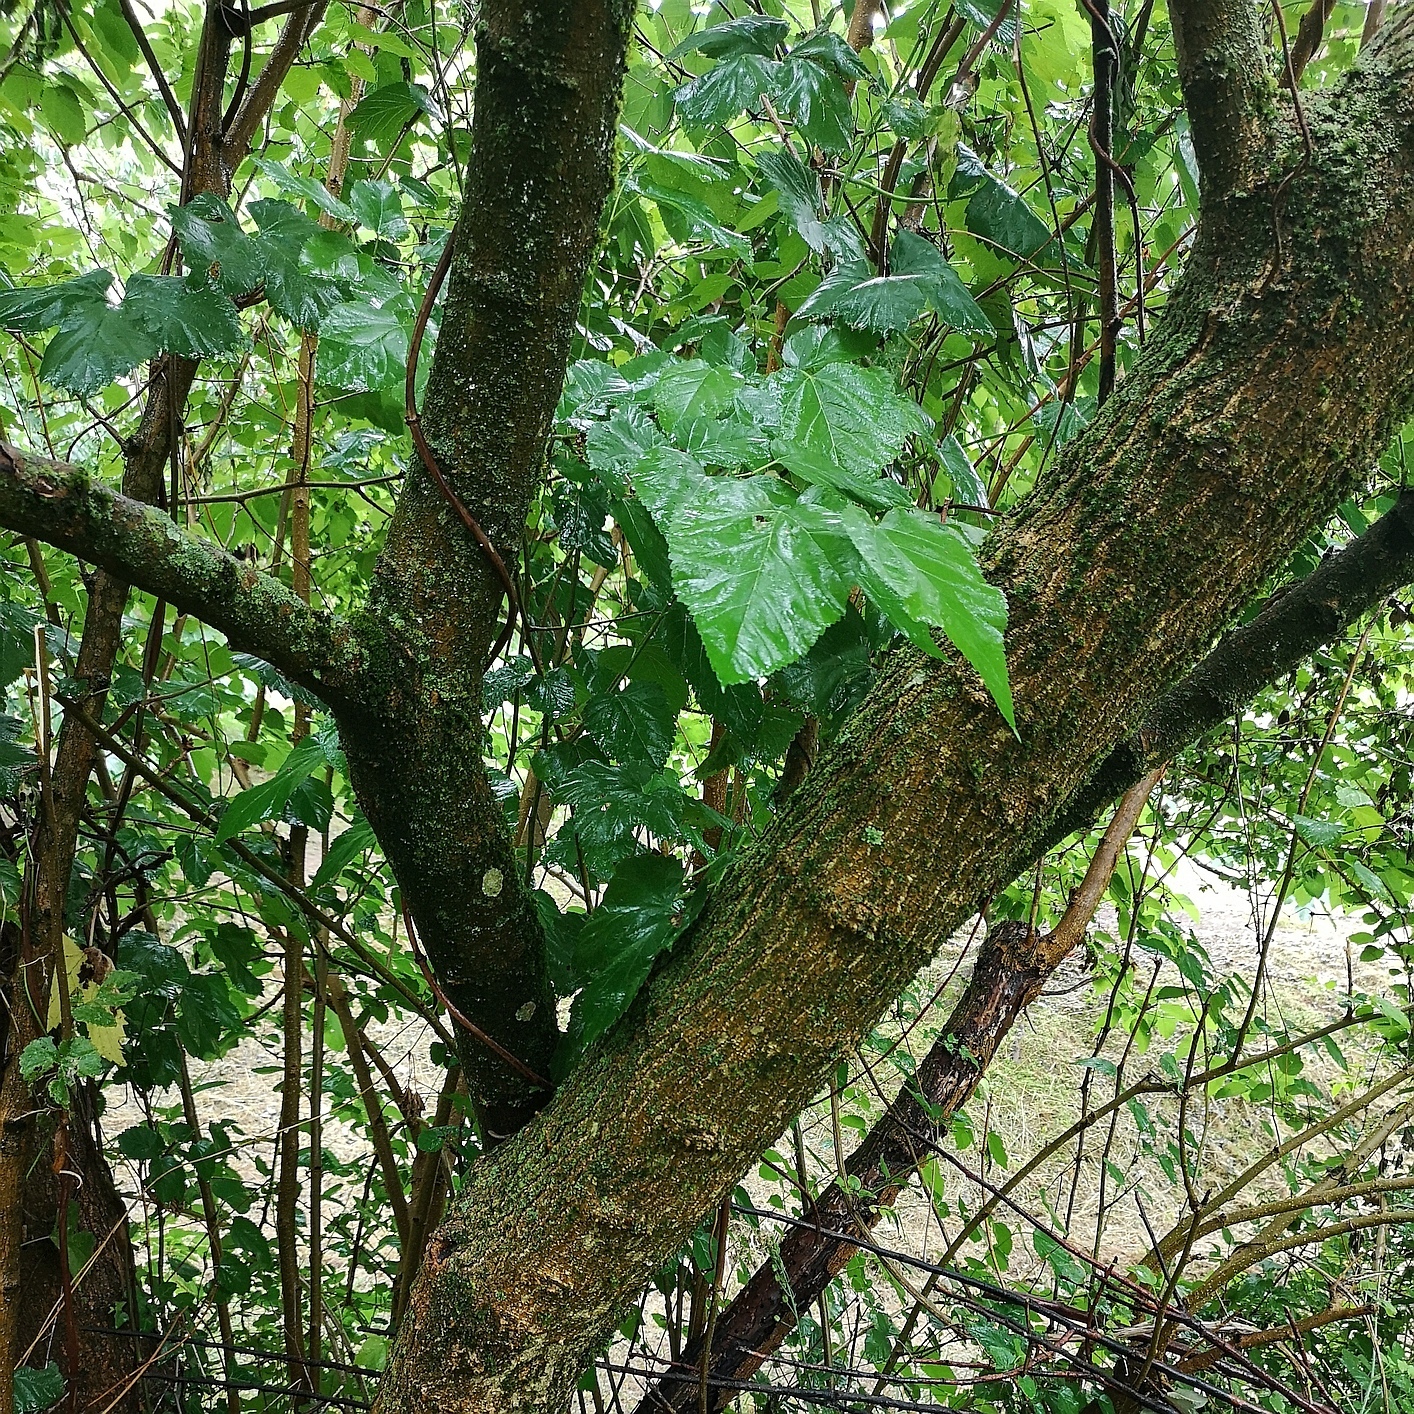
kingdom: Plantae
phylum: Tracheophyta
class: Magnoliopsida
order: Rosales
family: Moraceae
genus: Morus
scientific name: Morus alba
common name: White mulberry
